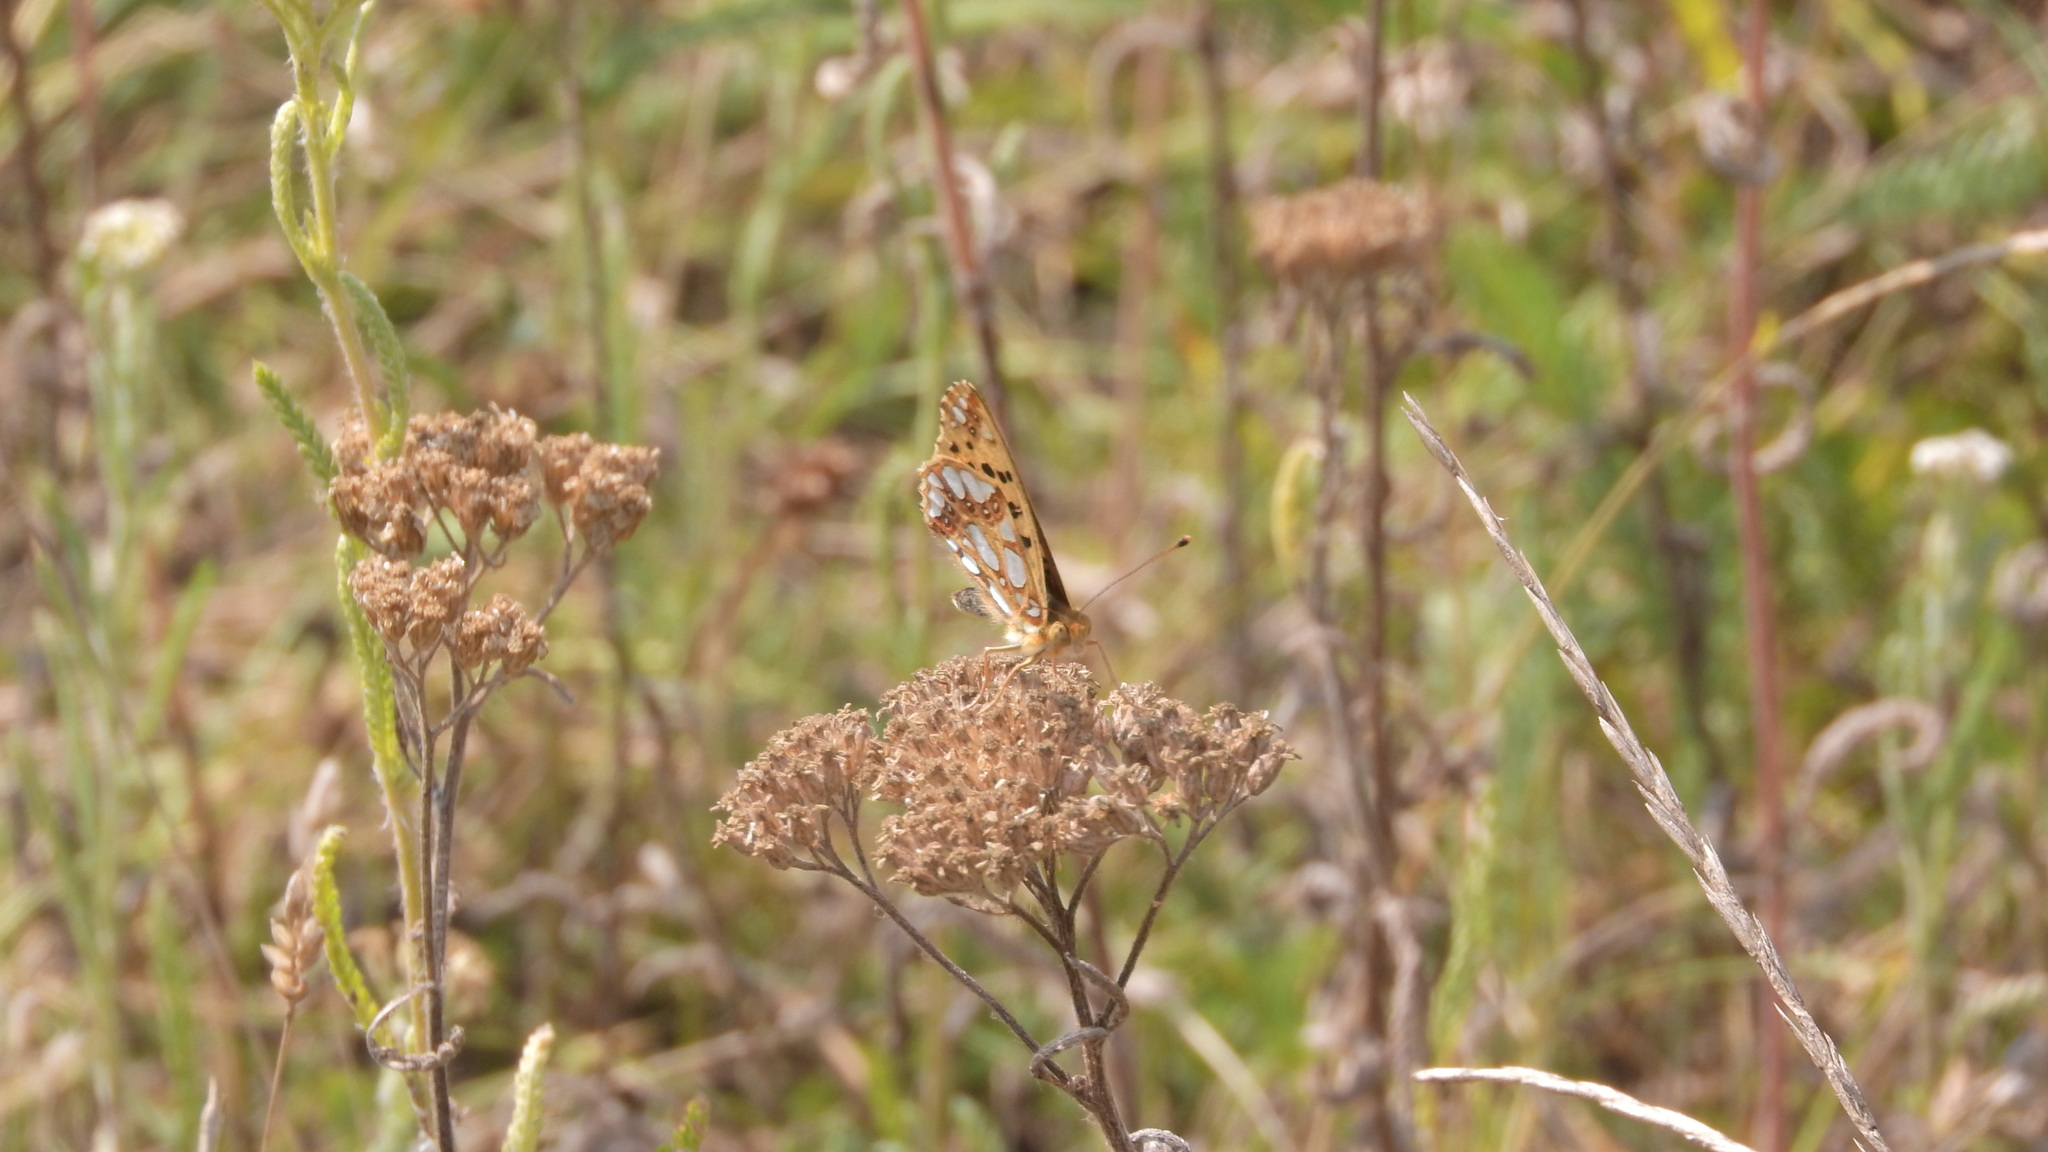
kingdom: Animalia
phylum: Arthropoda
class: Insecta
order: Lepidoptera
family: Nymphalidae
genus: Issoria
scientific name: Issoria lathonia
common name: Queen of spain fritillary
